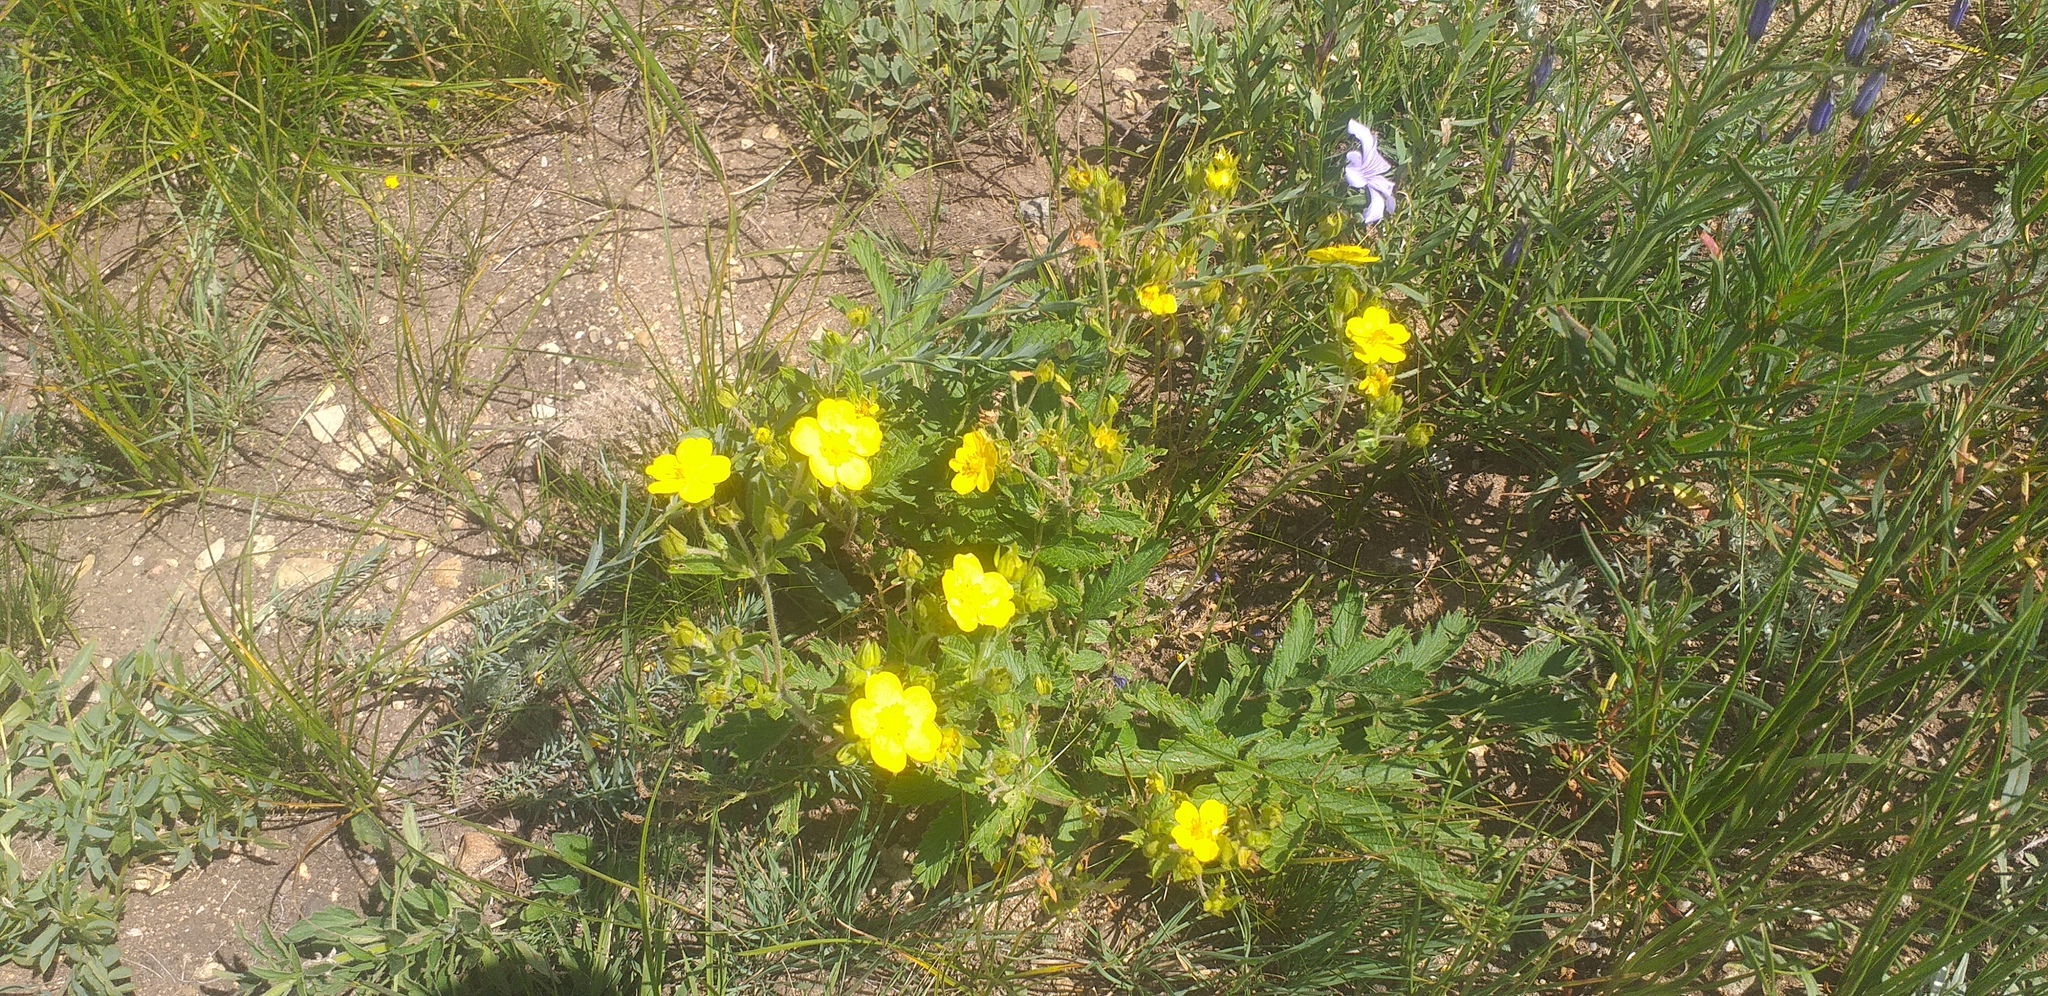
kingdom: Plantae
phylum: Tracheophyta
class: Magnoliopsida
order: Rosales
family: Rosaceae
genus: Potentilla
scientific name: Potentilla tanacetifolia
